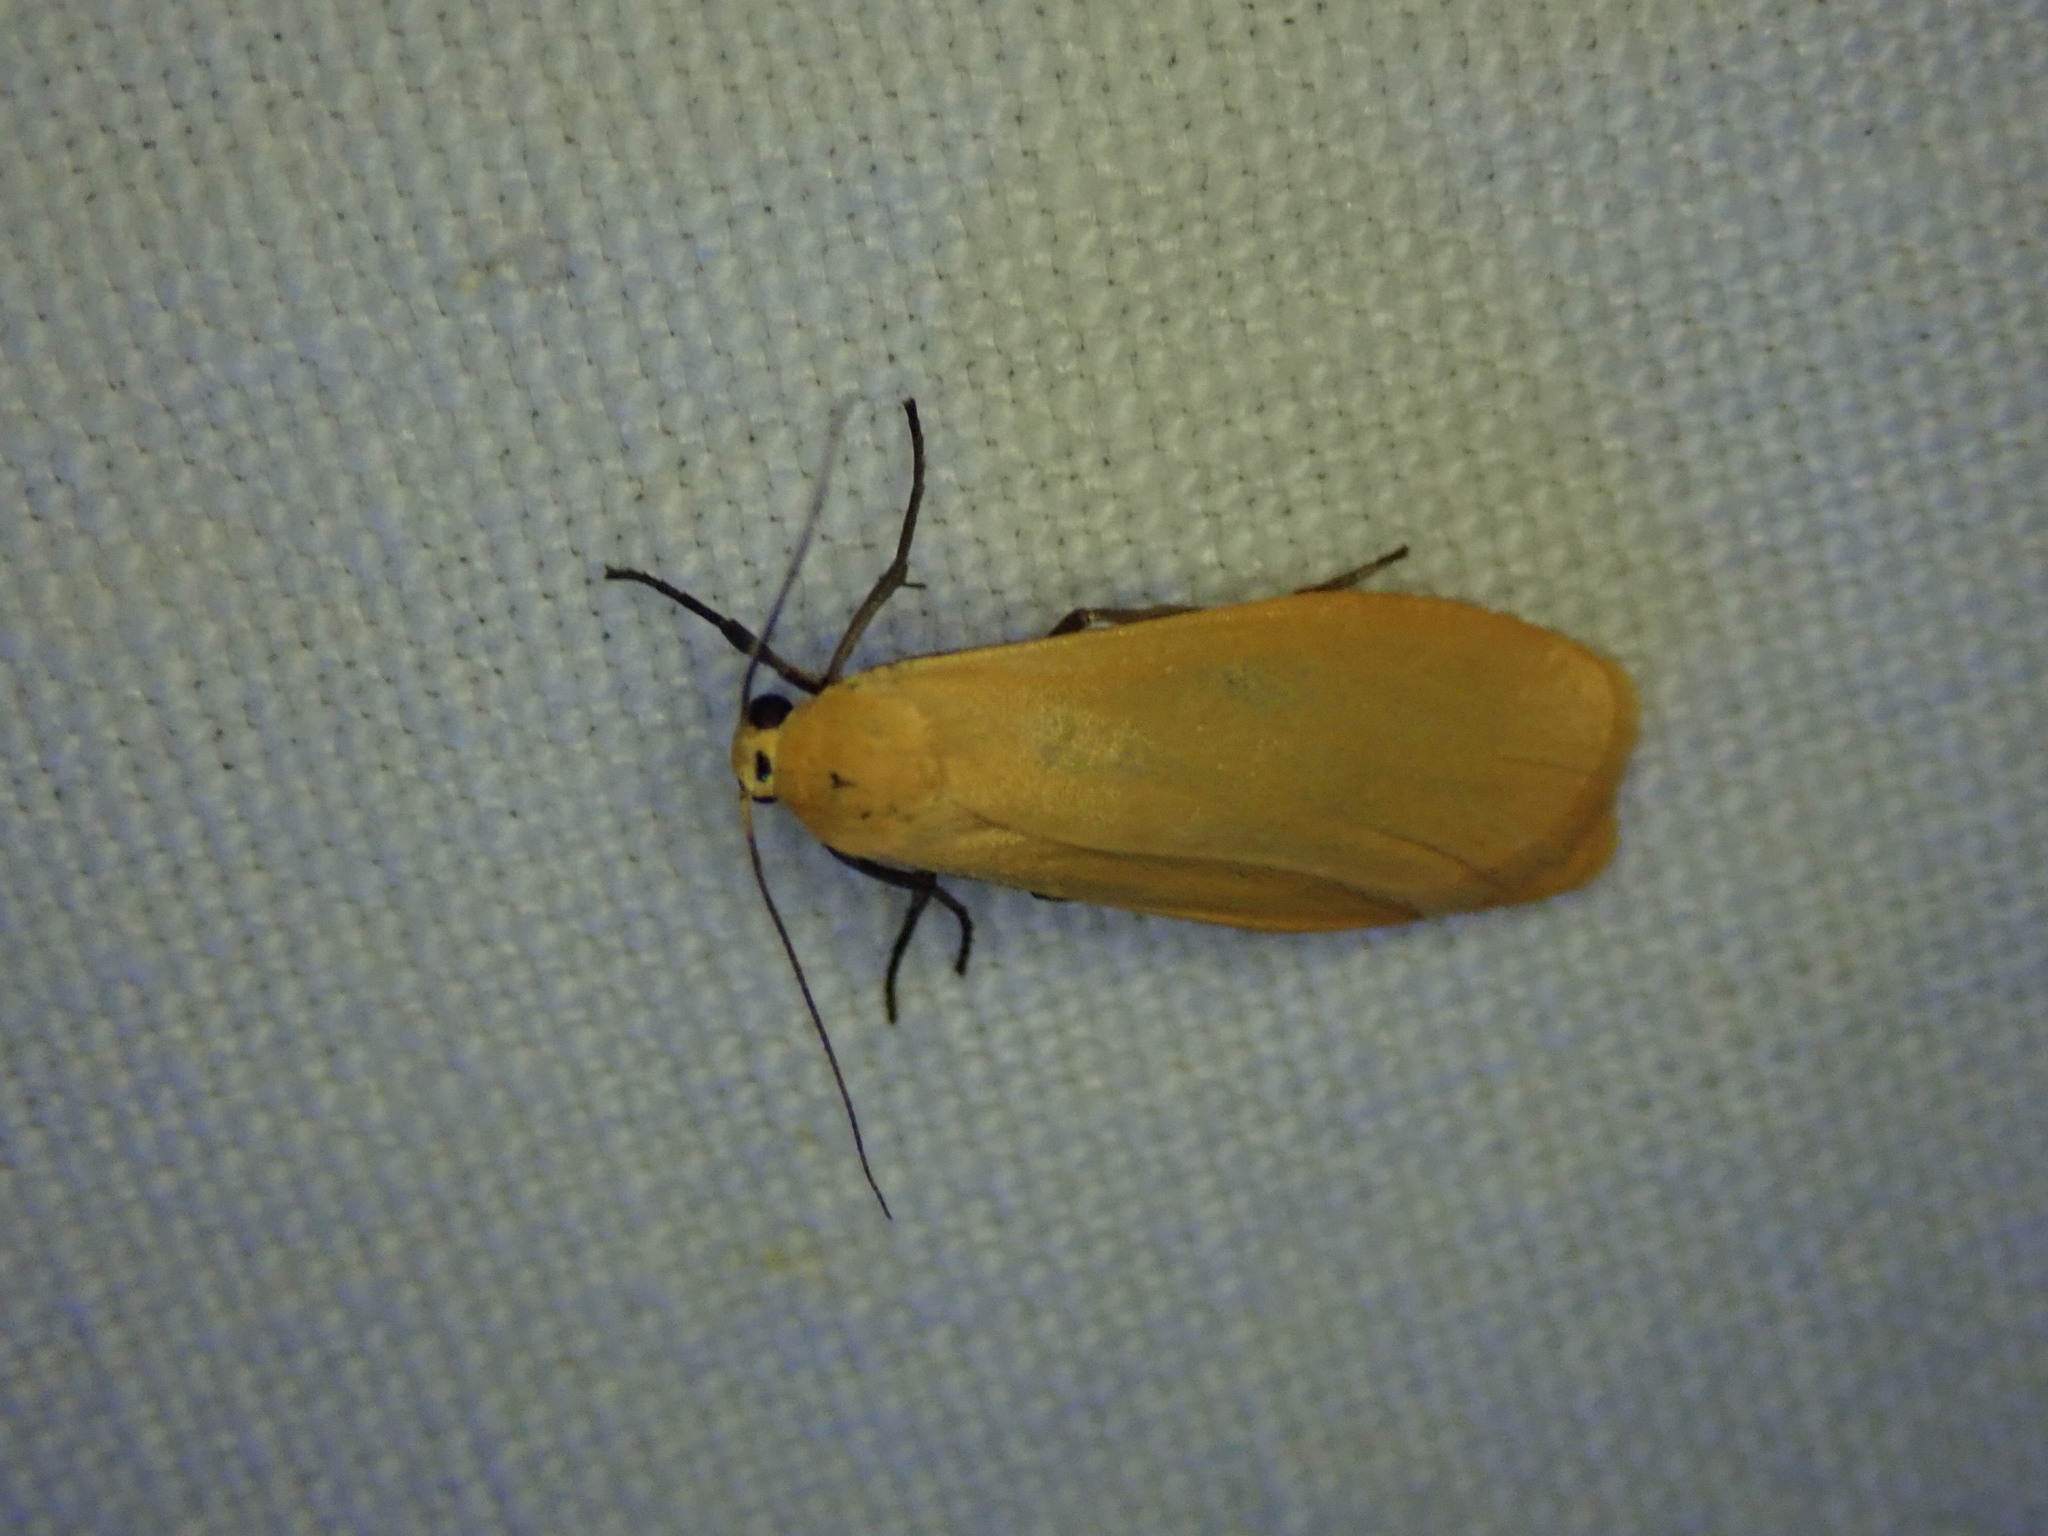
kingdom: Animalia
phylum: Arthropoda
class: Insecta
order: Lepidoptera
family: Erebidae
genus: Wittia
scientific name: Wittia sororcula
